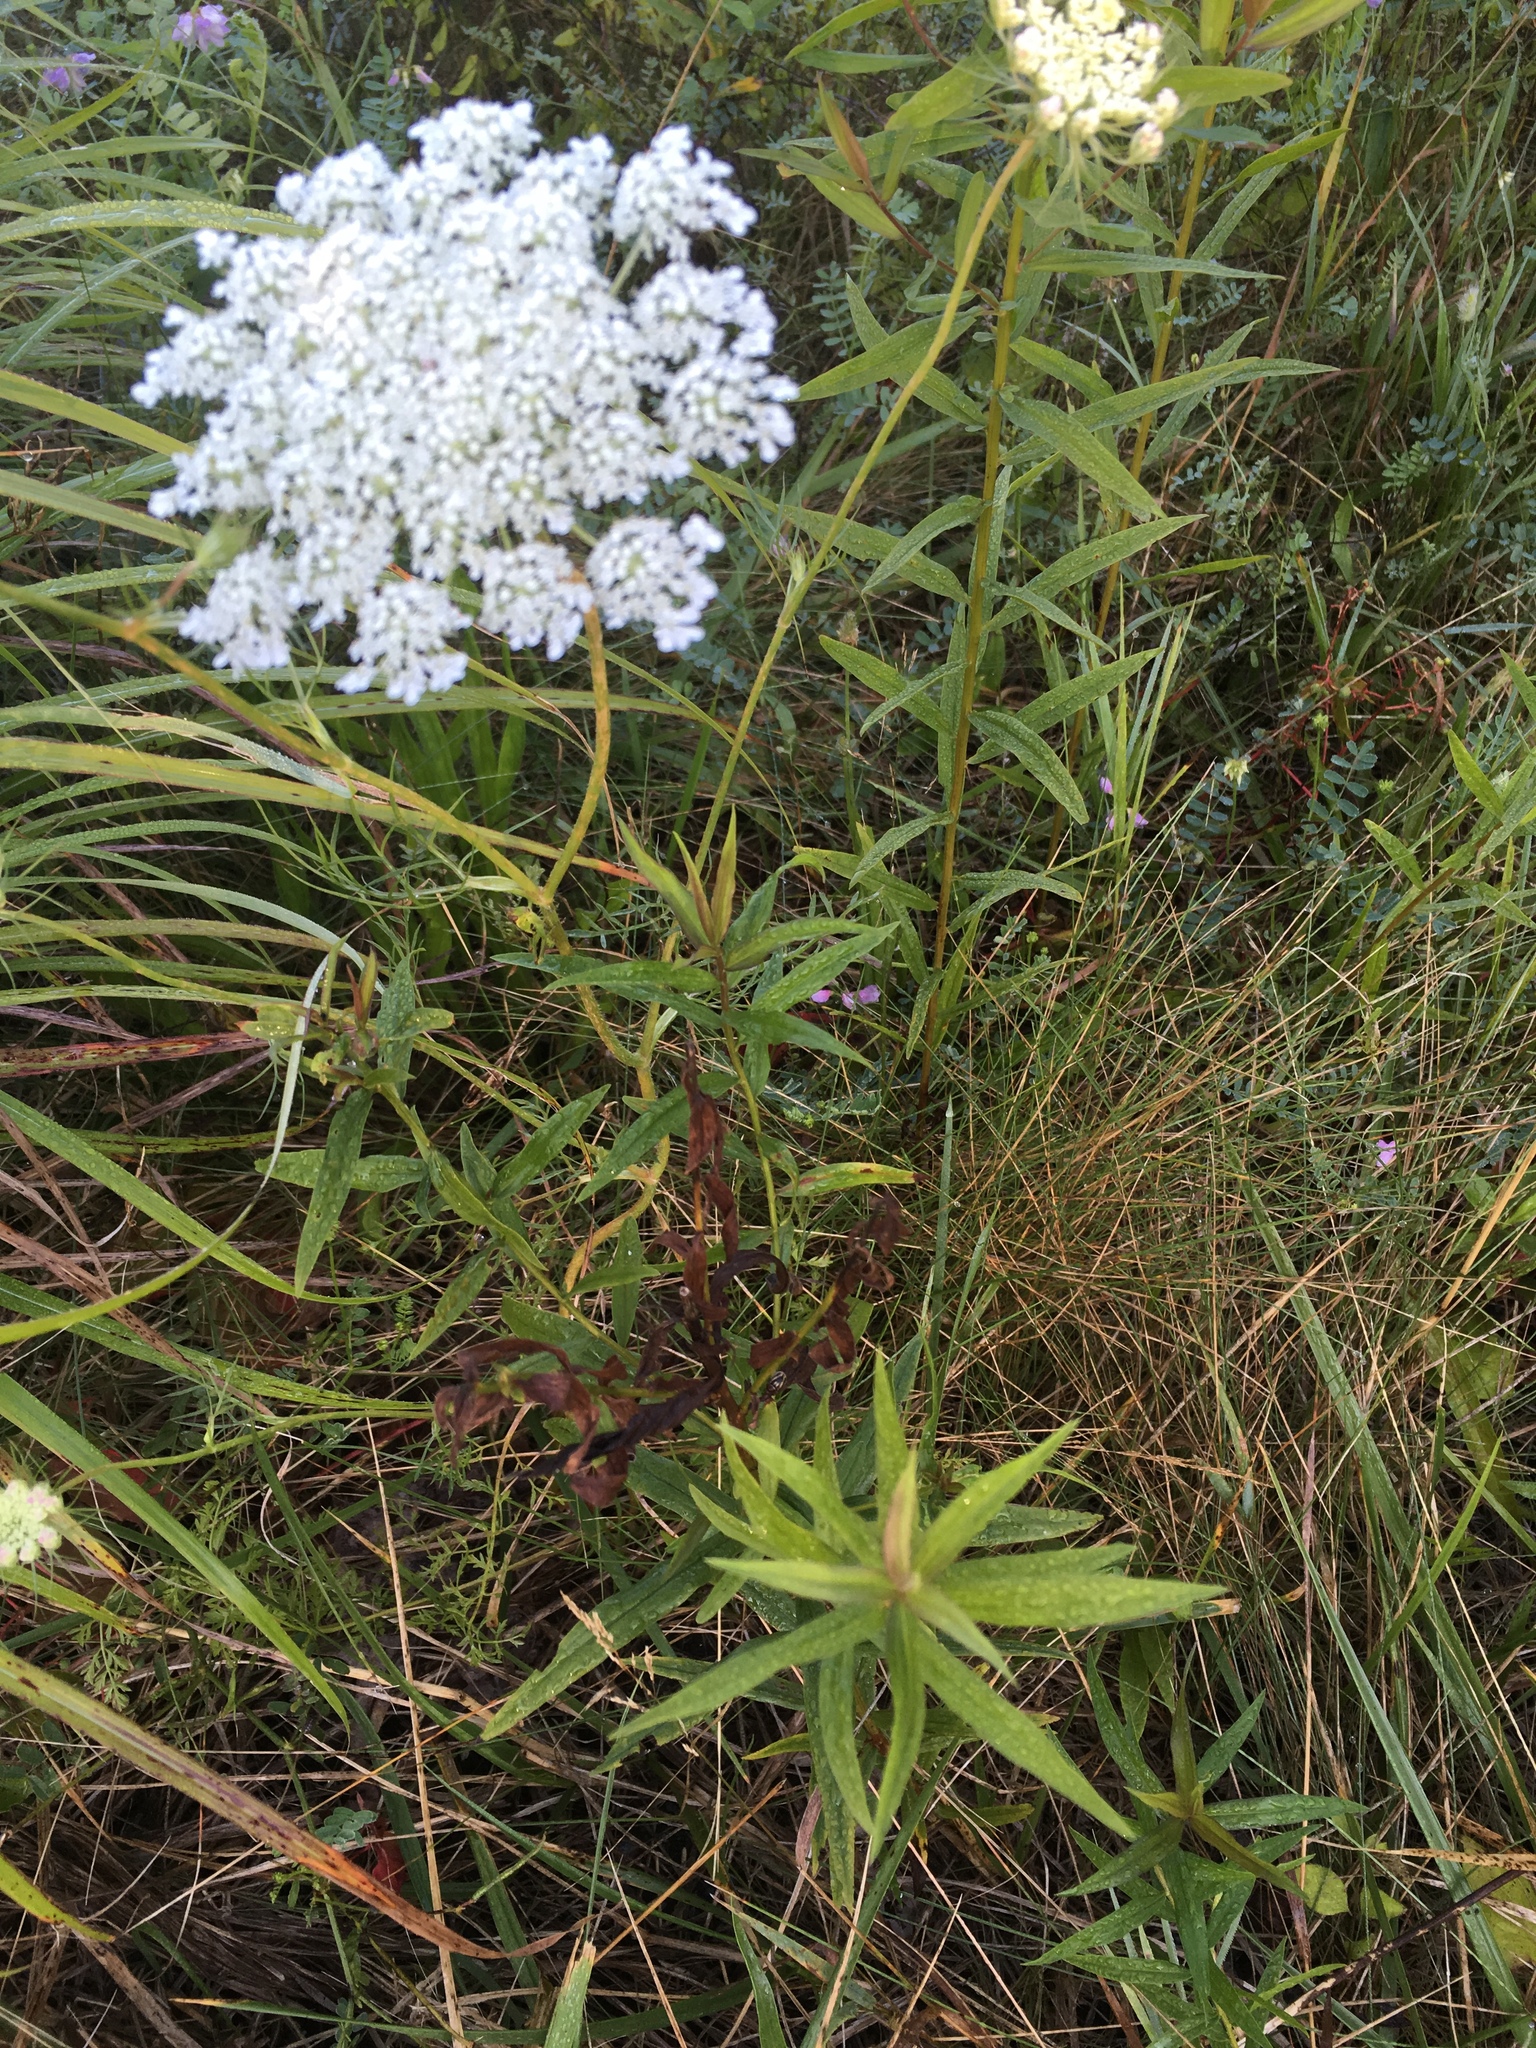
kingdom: Plantae
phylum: Tracheophyta
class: Magnoliopsida
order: Apiales
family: Apiaceae
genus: Daucus
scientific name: Daucus carota
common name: Wild carrot
